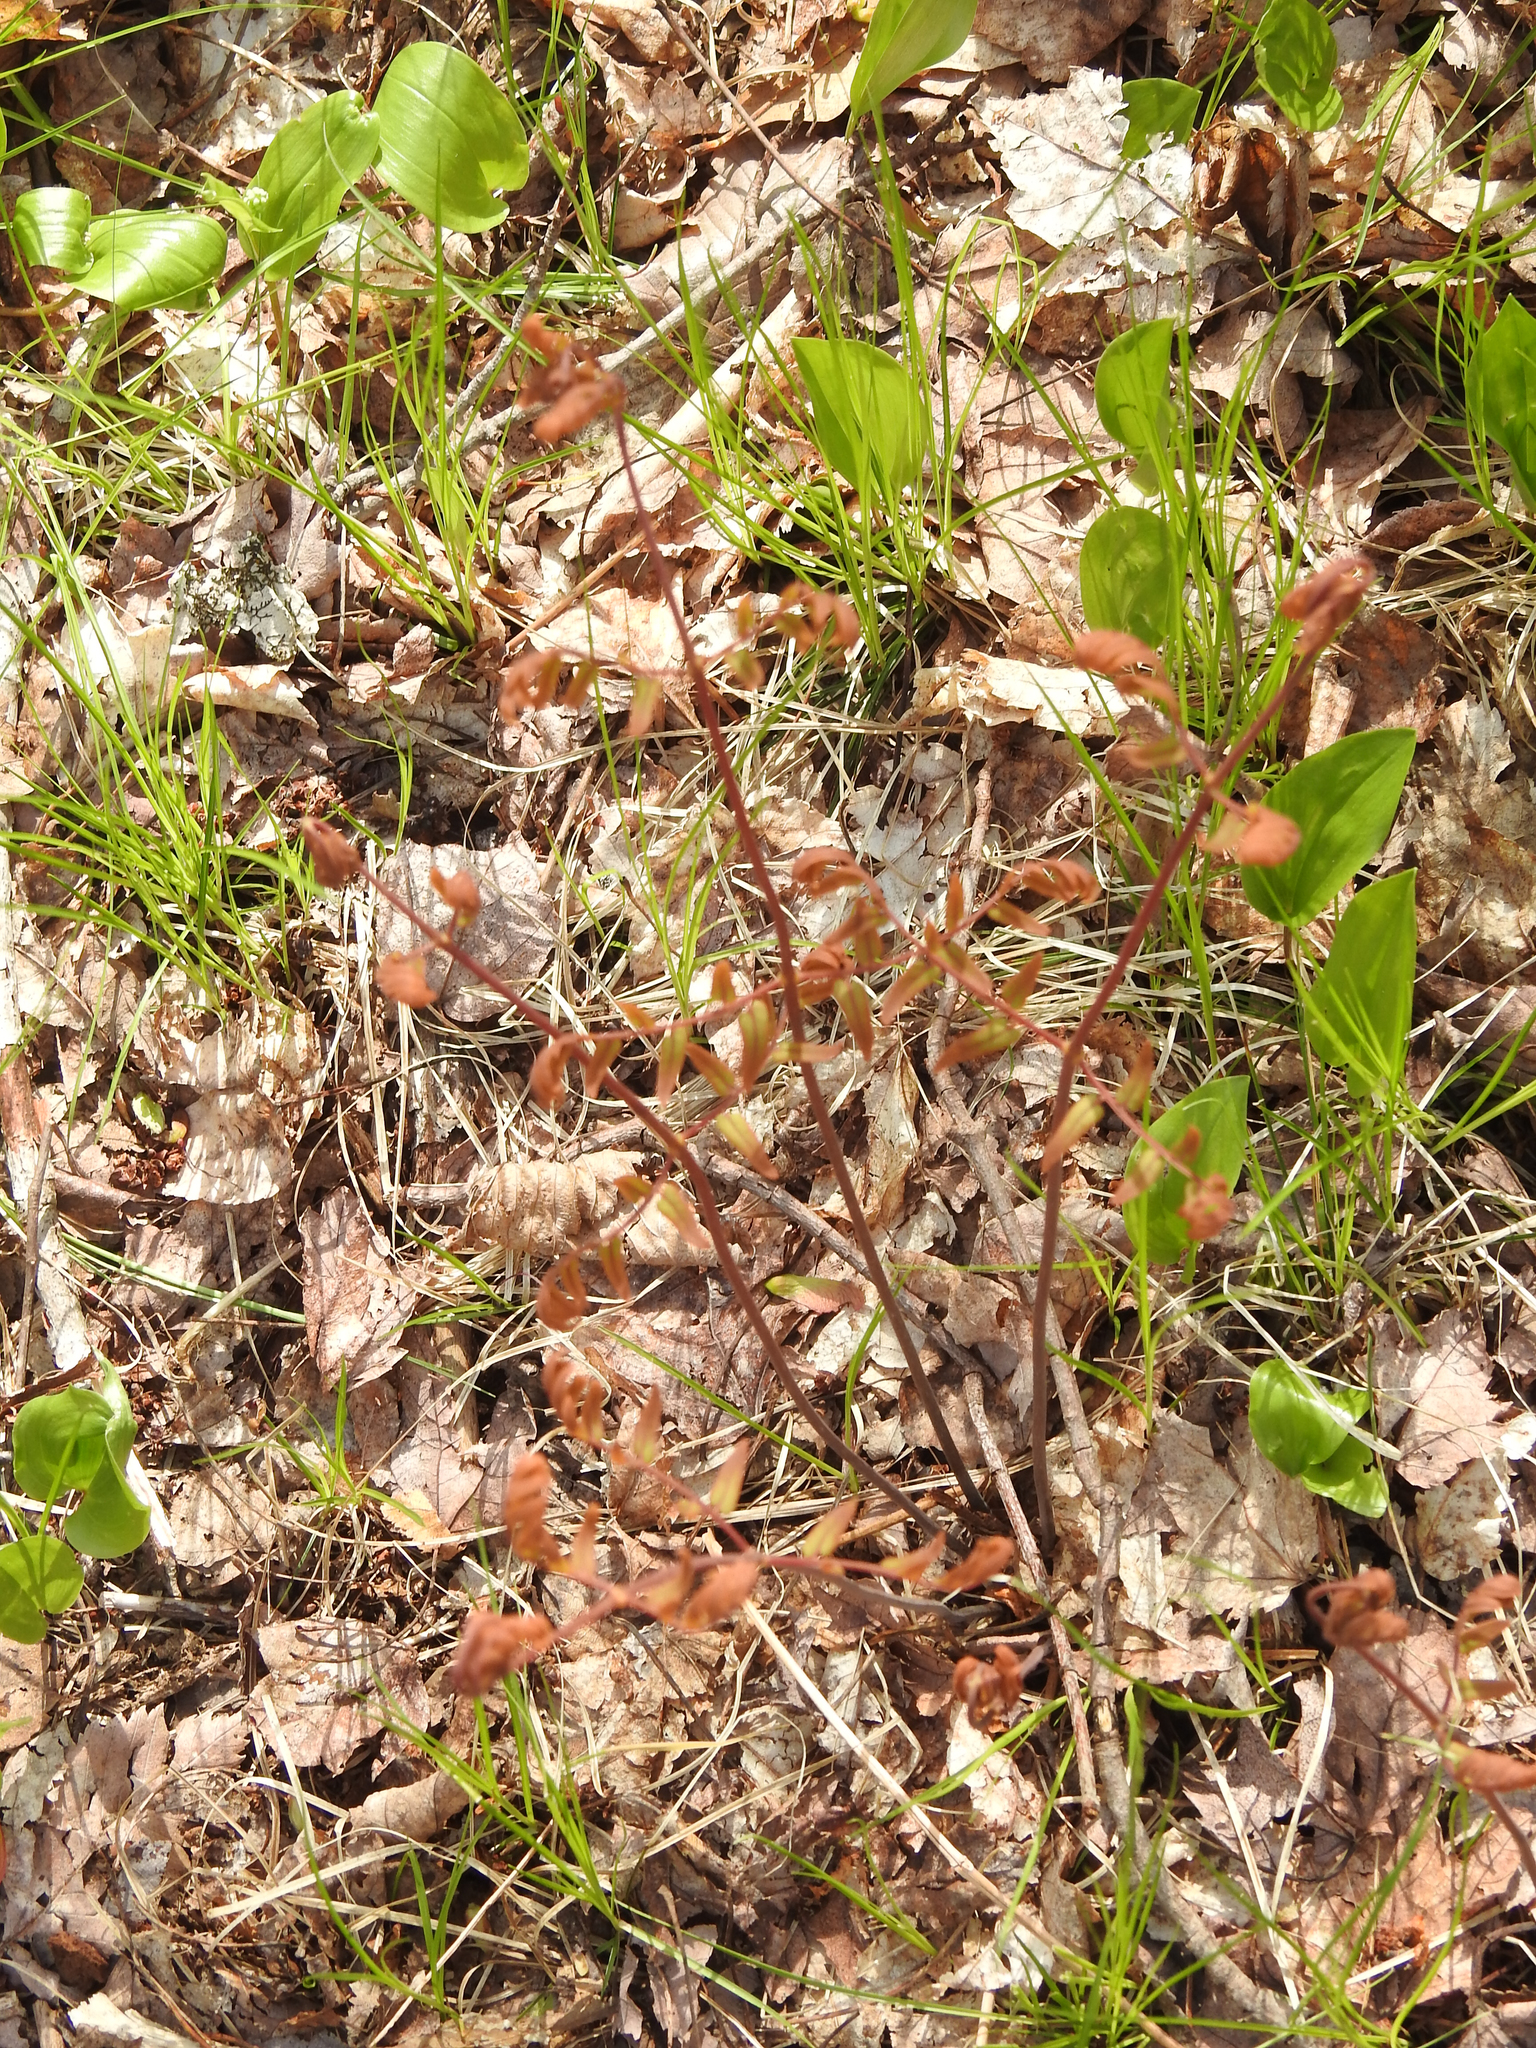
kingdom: Plantae
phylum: Tracheophyta
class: Polypodiopsida
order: Osmundales
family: Osmundaceae
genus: Osmunda
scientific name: Osmunda spectabilis
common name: American royal fern
